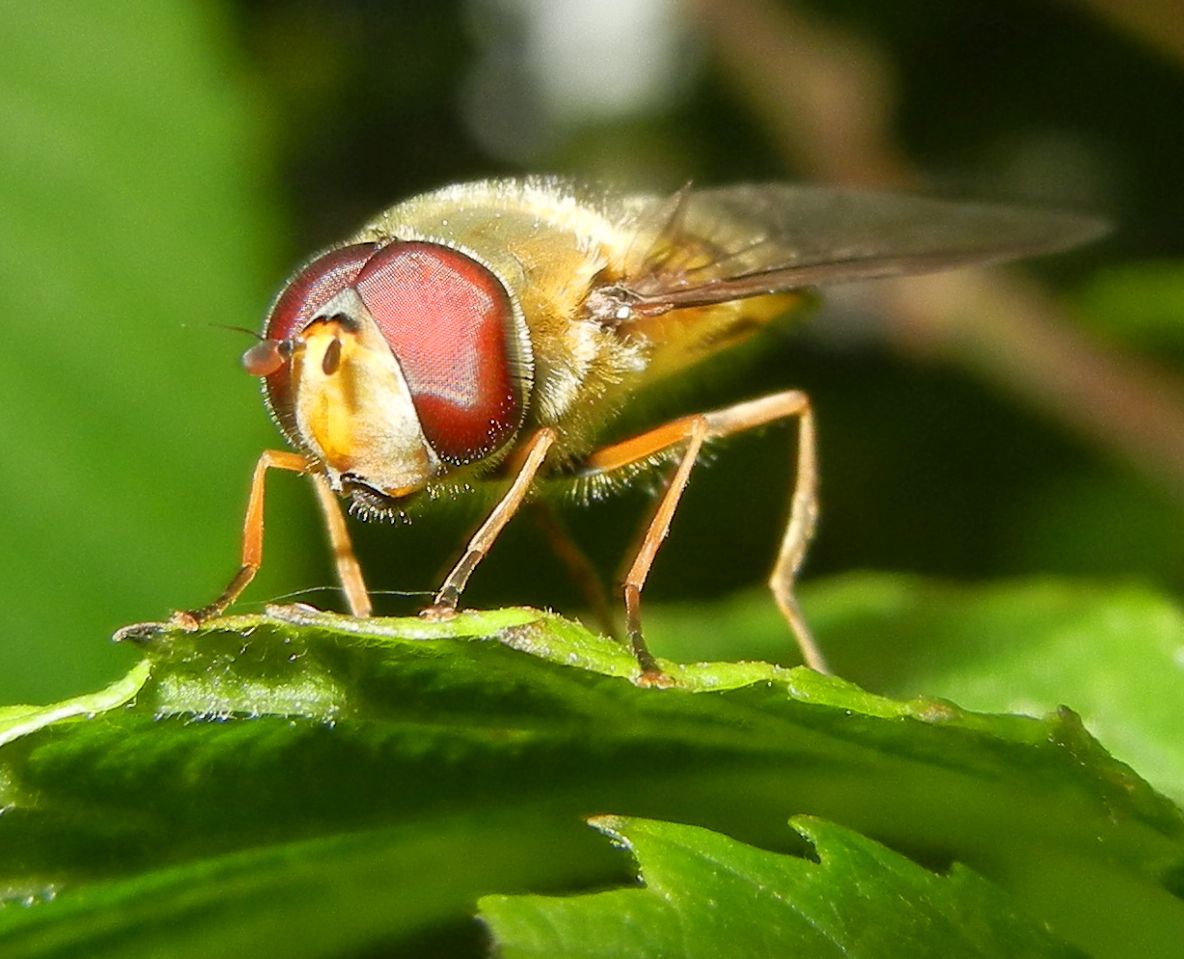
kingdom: Animalia
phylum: Arthropoda
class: Insecta
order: Diptera
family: Syrphidae
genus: Syrphus
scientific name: Syrphus torvus
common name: Hairy-eyed flower fly
